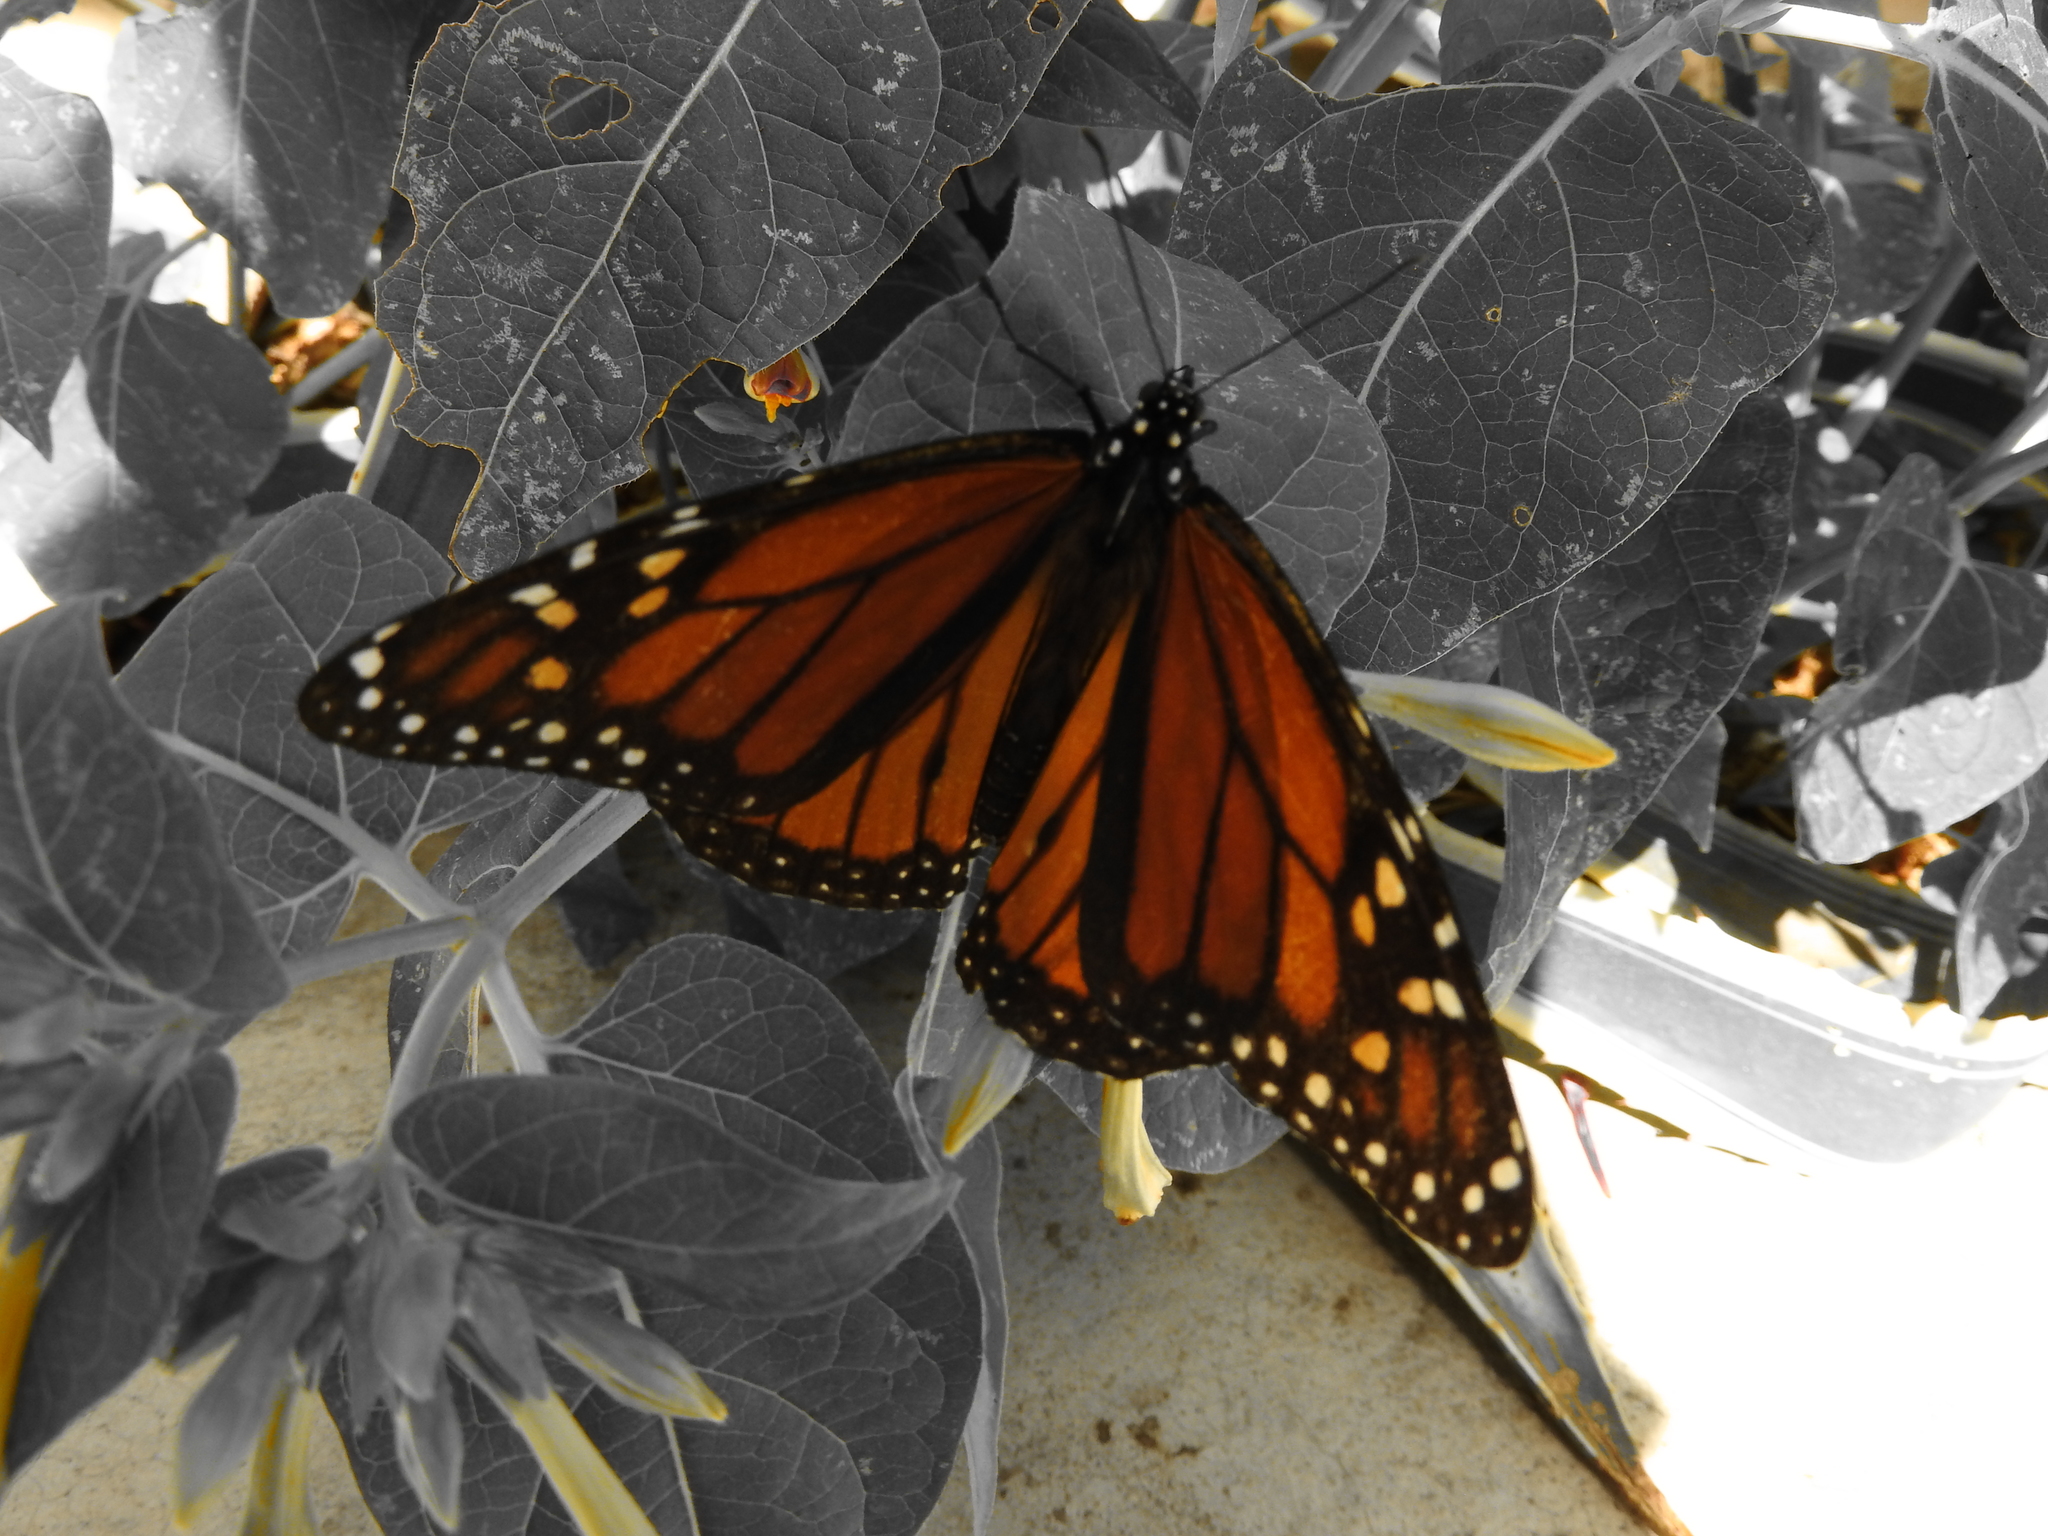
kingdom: Animalia
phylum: Arthropoda
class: Insecta
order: Lepidoptera
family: Nymphalidae
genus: Danaus
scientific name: Danaus plexippus
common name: Monarch
